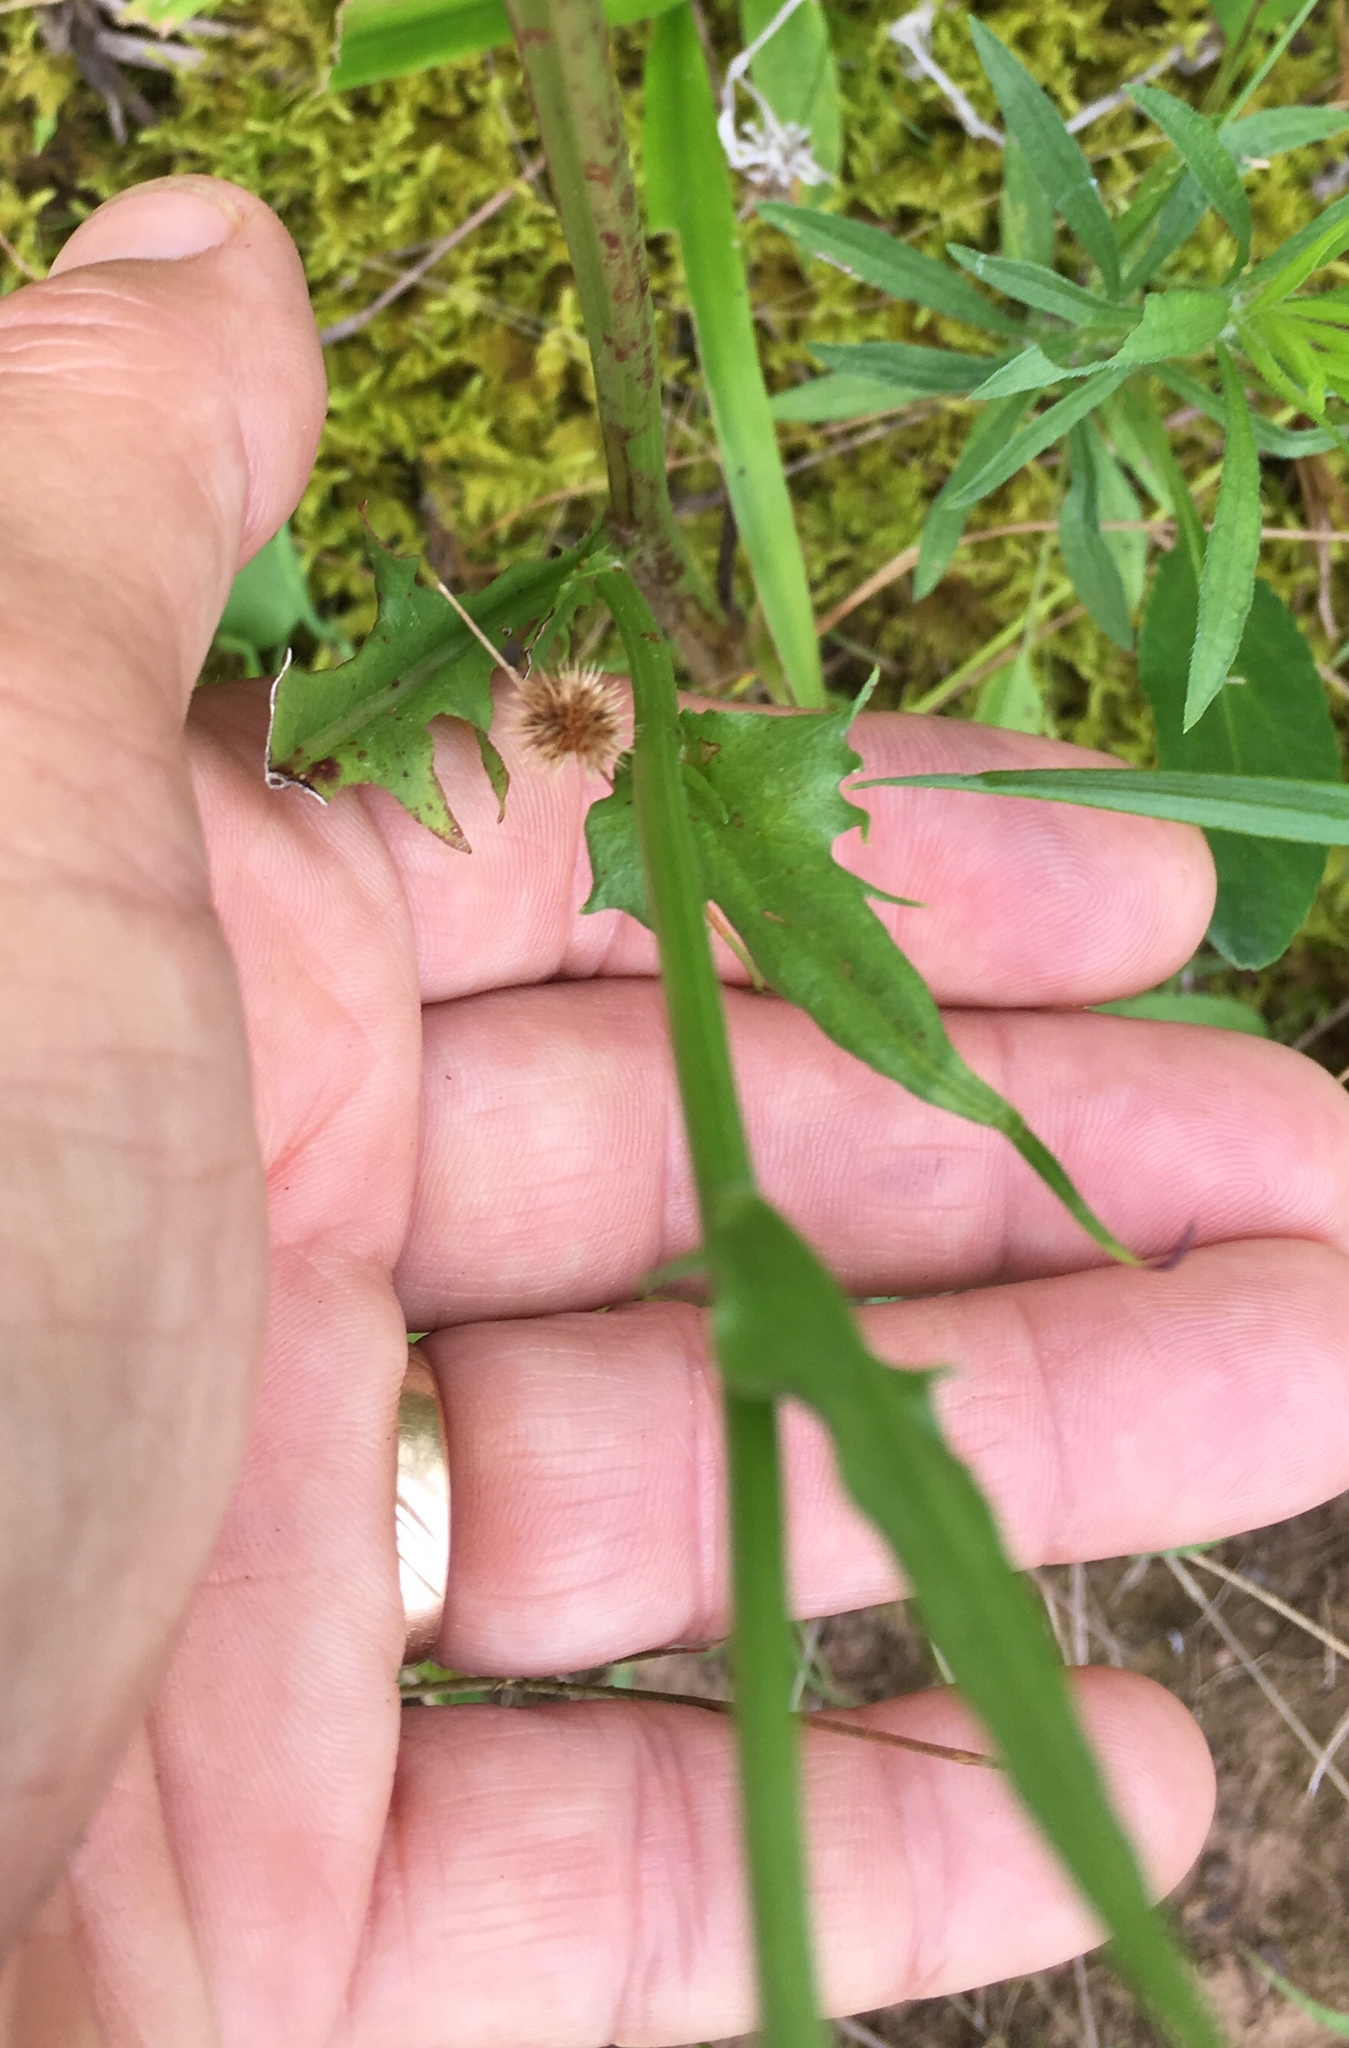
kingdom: Plantae
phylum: Tracheophyta
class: Magnoliopsida
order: Asterales
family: Asteraceae
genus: Pyrrhopappus
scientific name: Pyrrhopappus carolinianus
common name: Carolina desert-chicory
